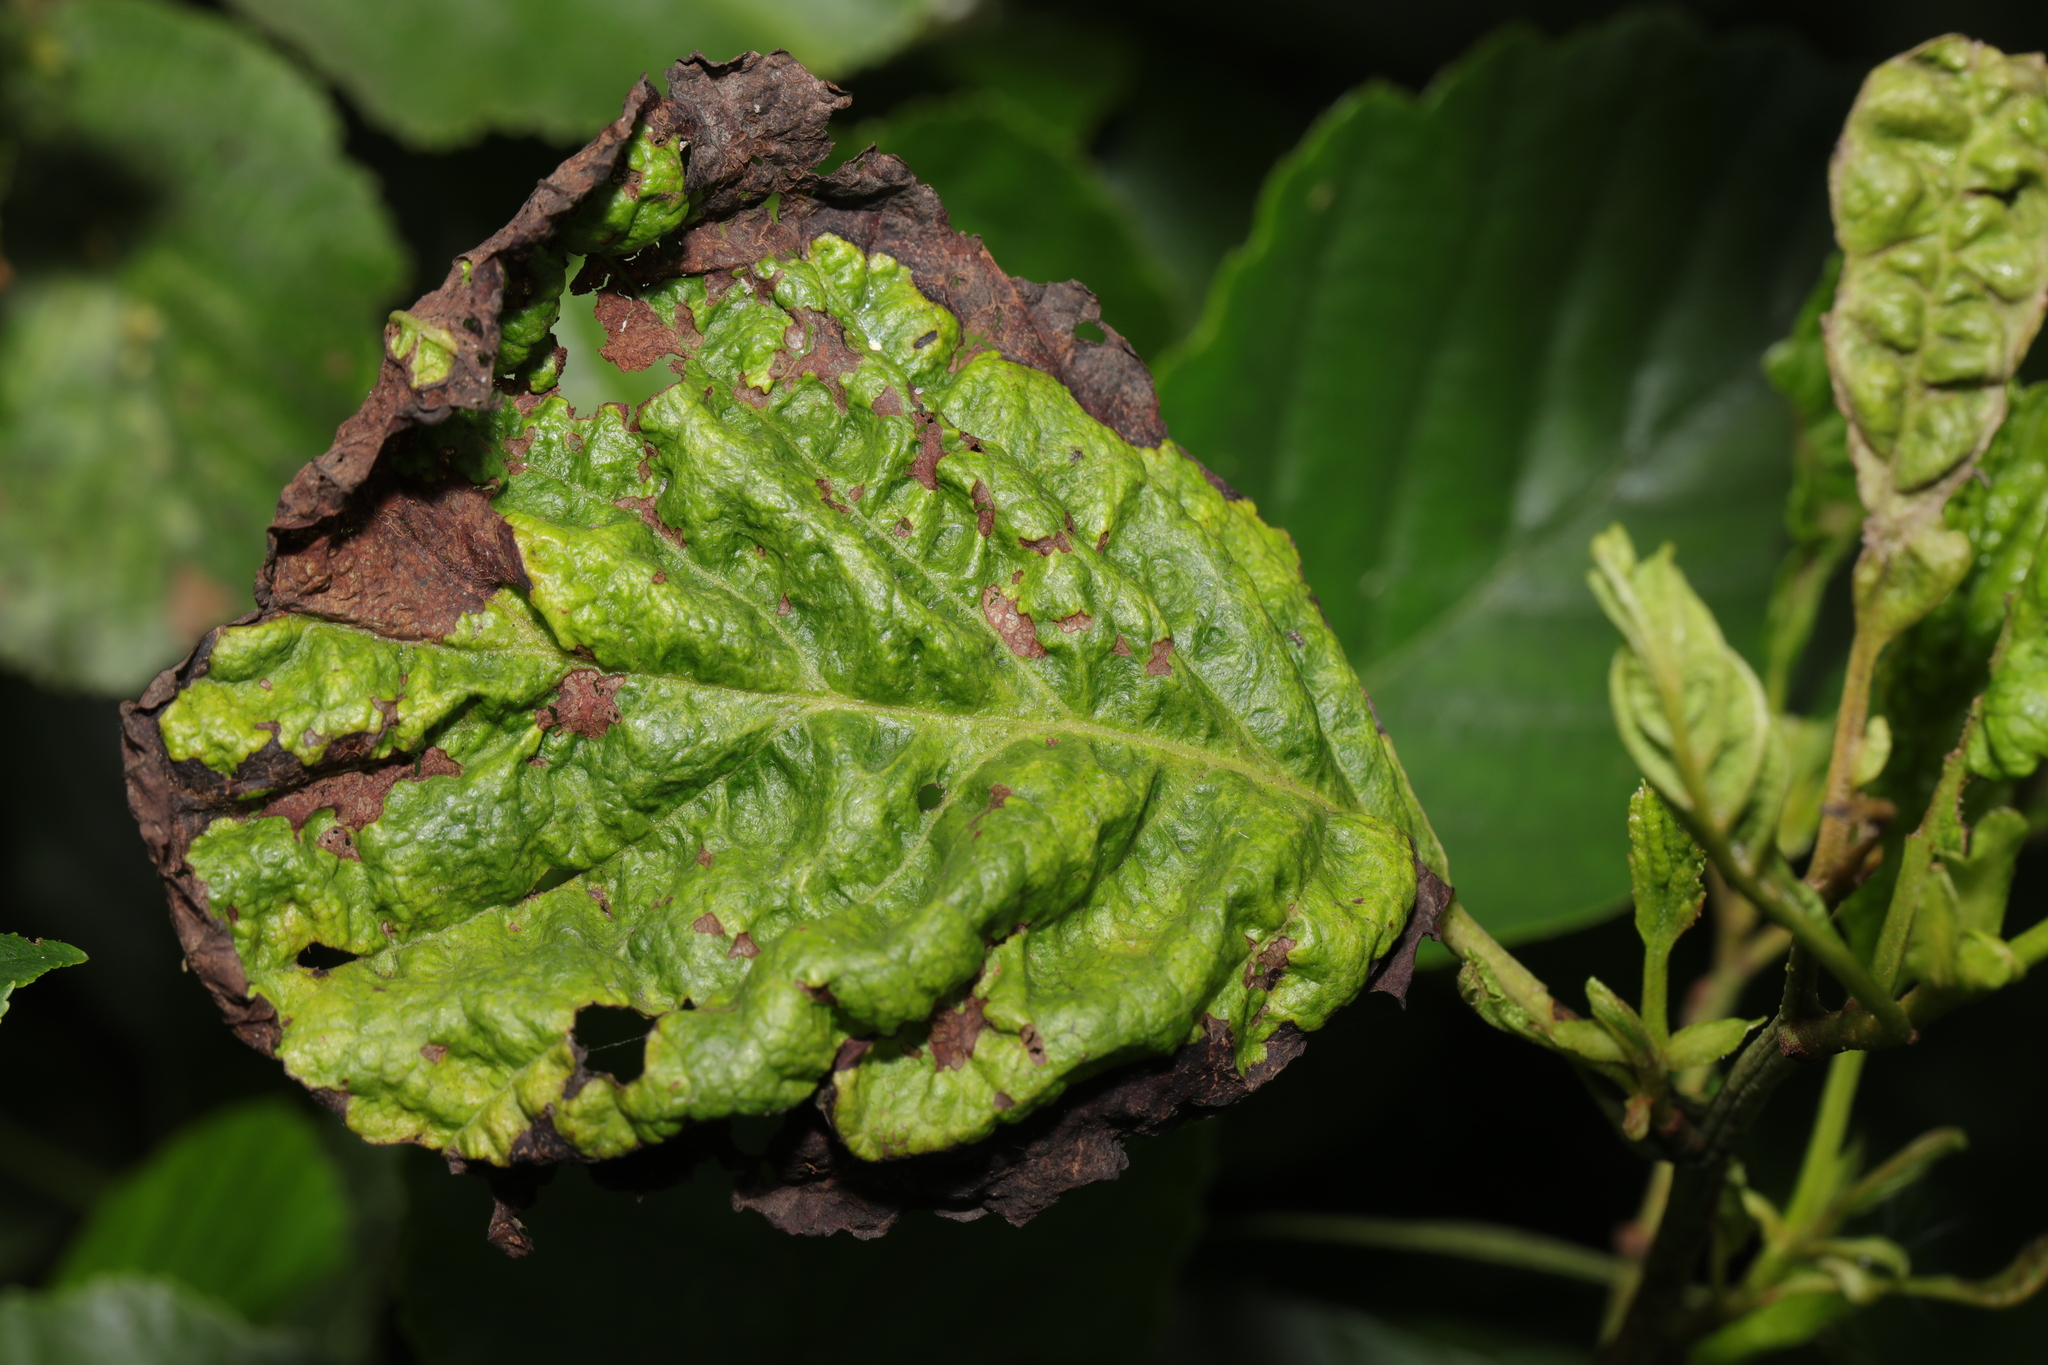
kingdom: Fungi
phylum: Ascomycota
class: Taphrinomycetes
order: Taphrinales
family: Taphrinaceae
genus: Taphrina
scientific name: Taphrina tosquinetii
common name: Alder wrinkle
